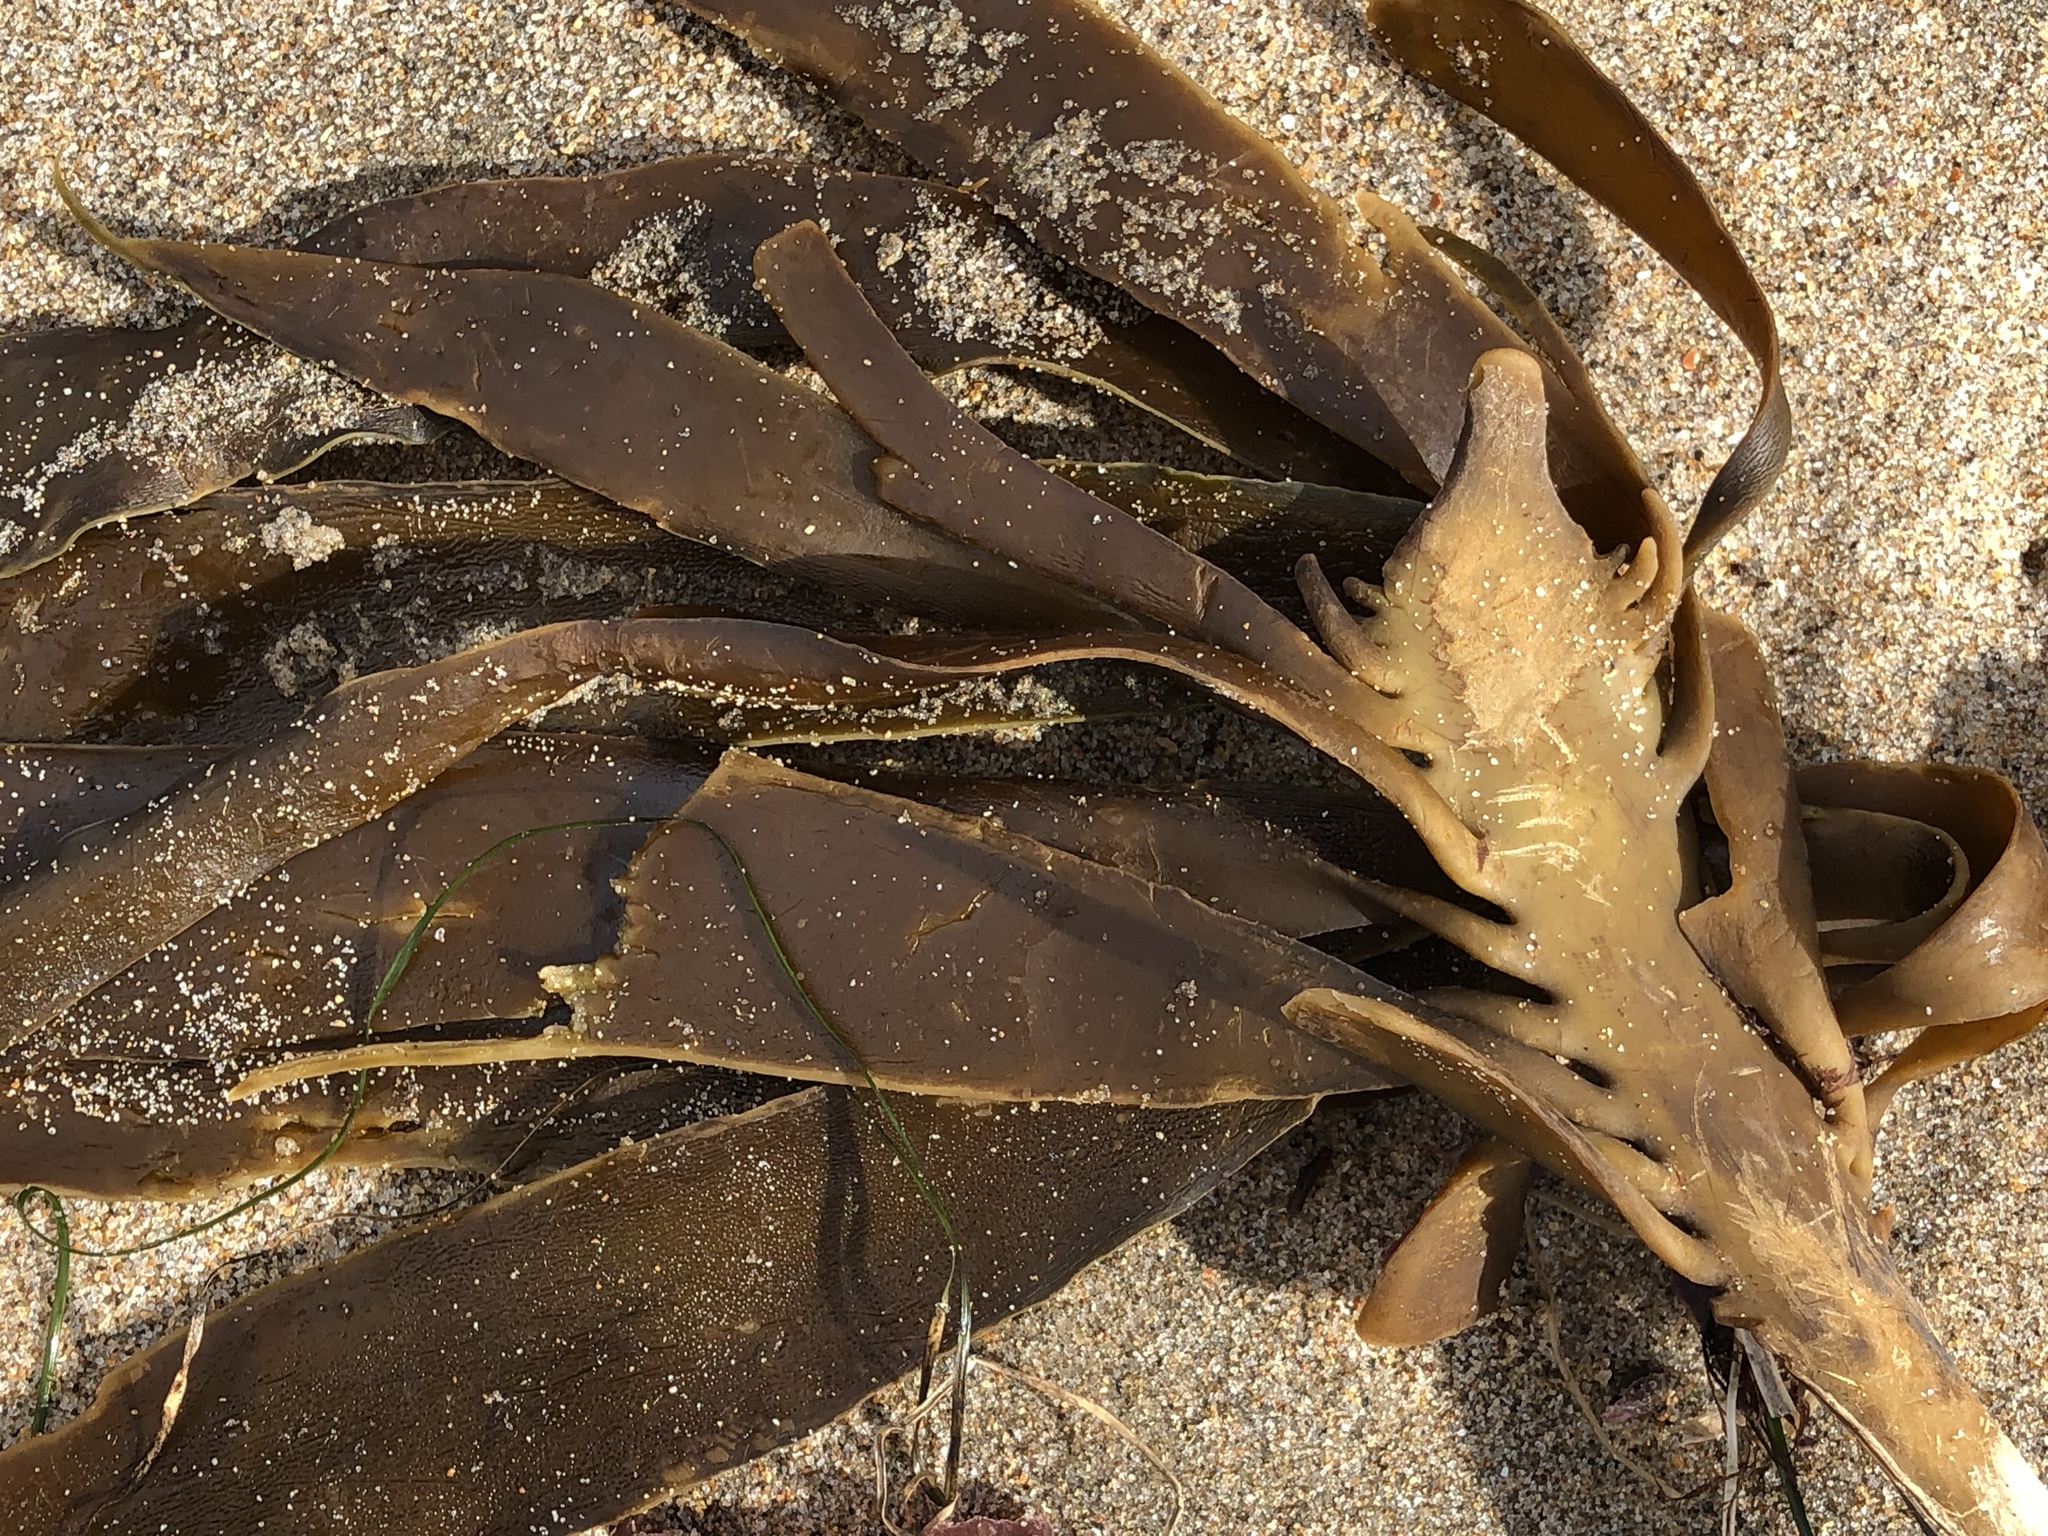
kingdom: Chromista
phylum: Ochrophyta
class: Phaeophyceae
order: Laminariales
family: Alariaceae
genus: Pterygophora
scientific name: Pterygophora californica
